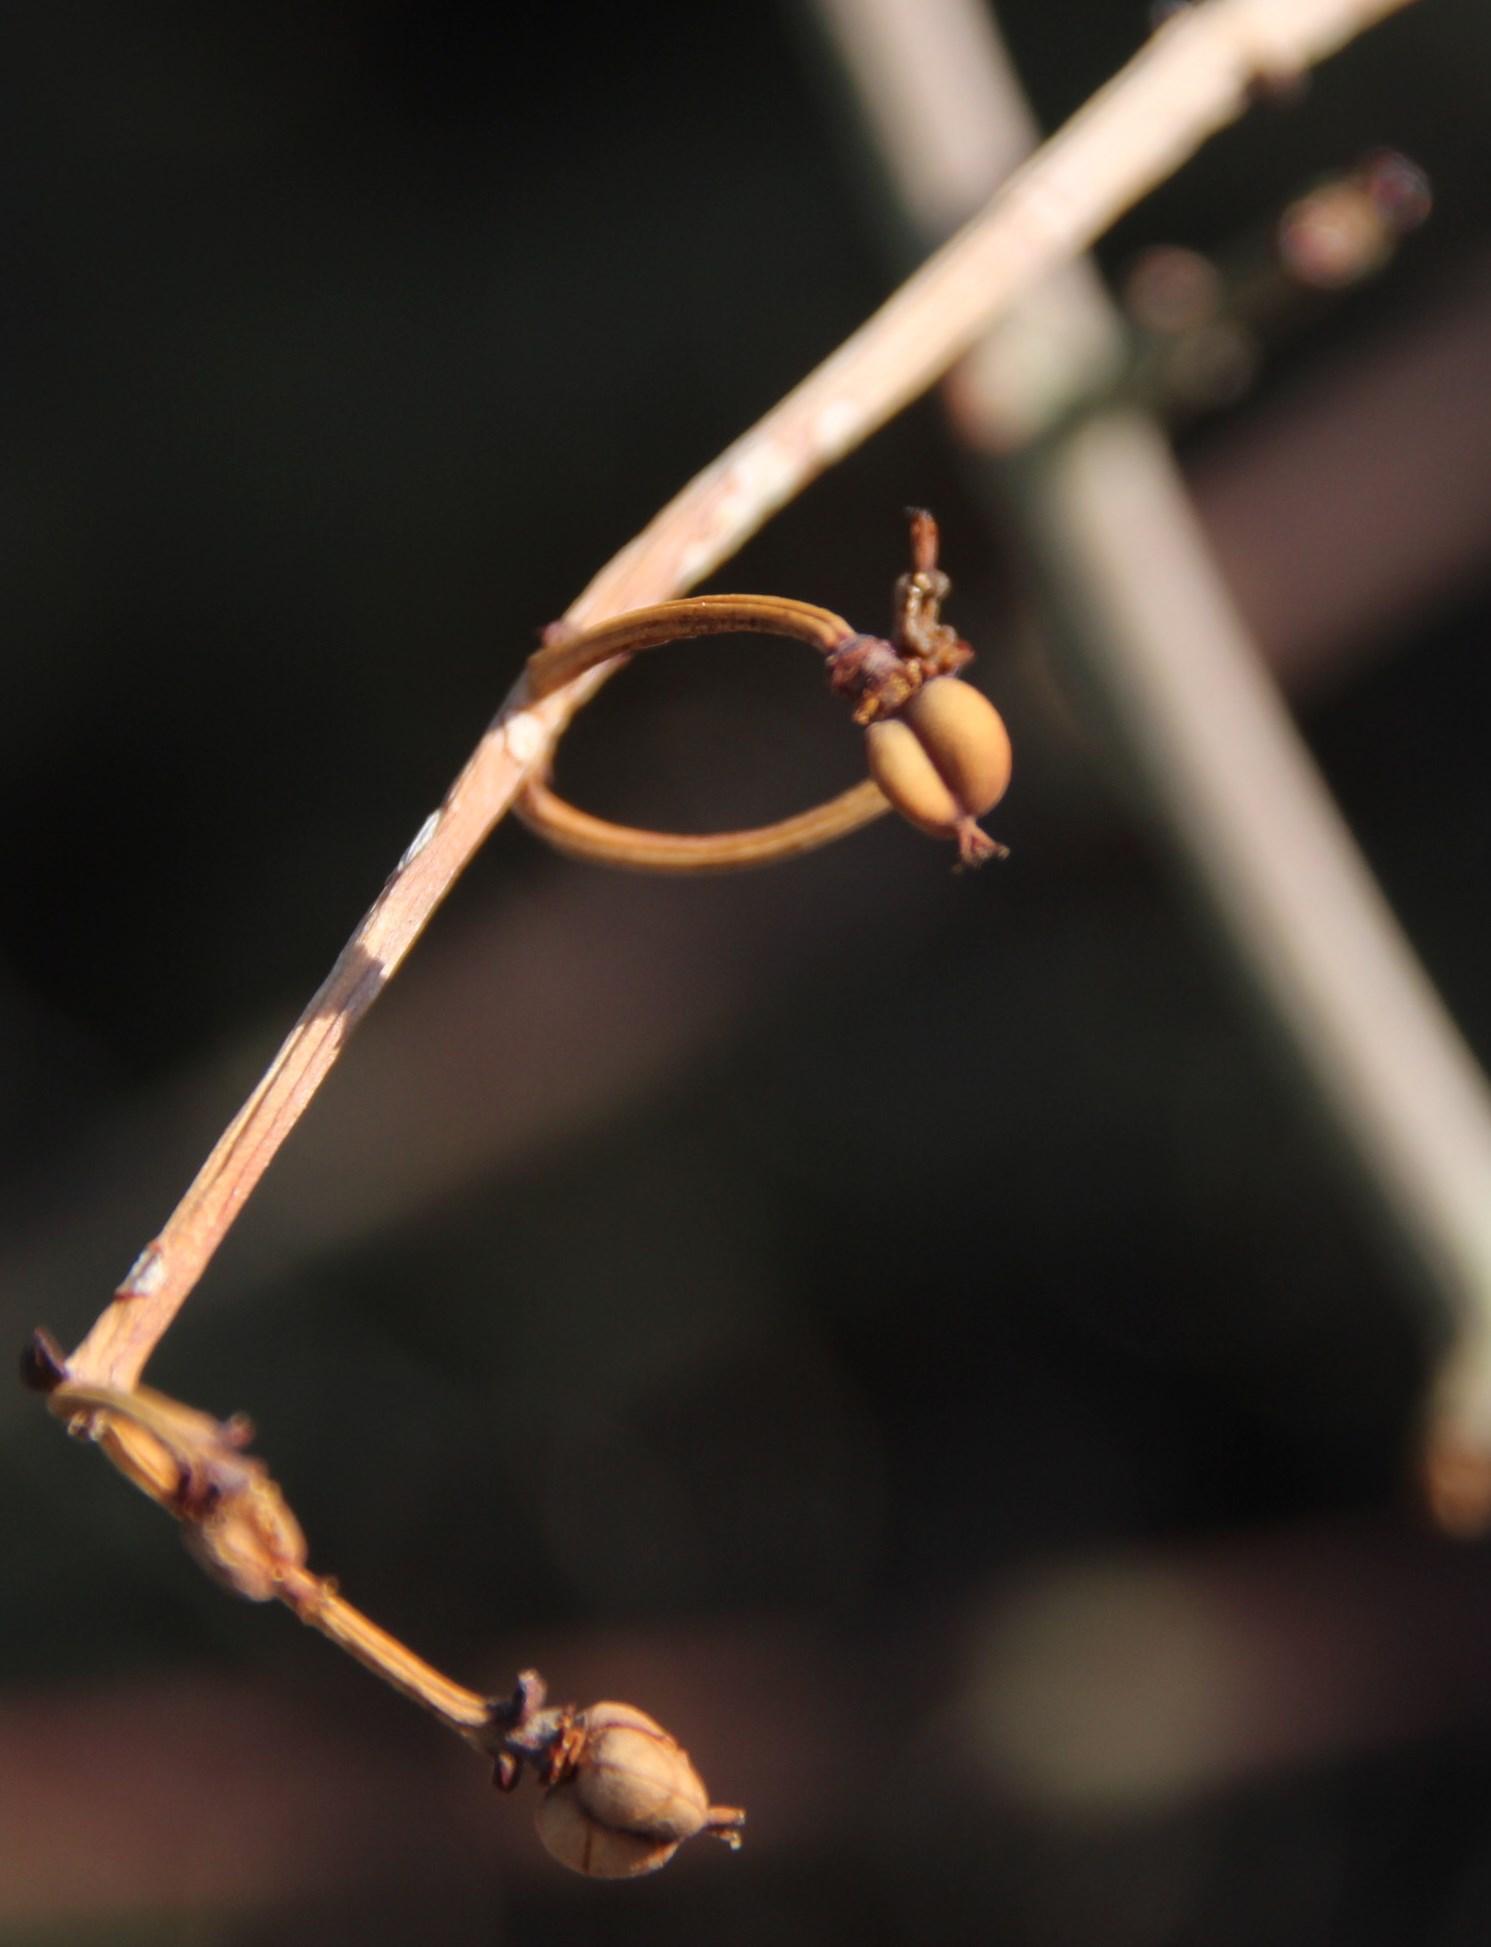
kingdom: Plantae
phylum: Tracheophyta
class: Magnoliopsida
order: Malpighiales
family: Euphorbiaceae
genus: Euphorbia
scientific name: Euphorbia rhombifolia
